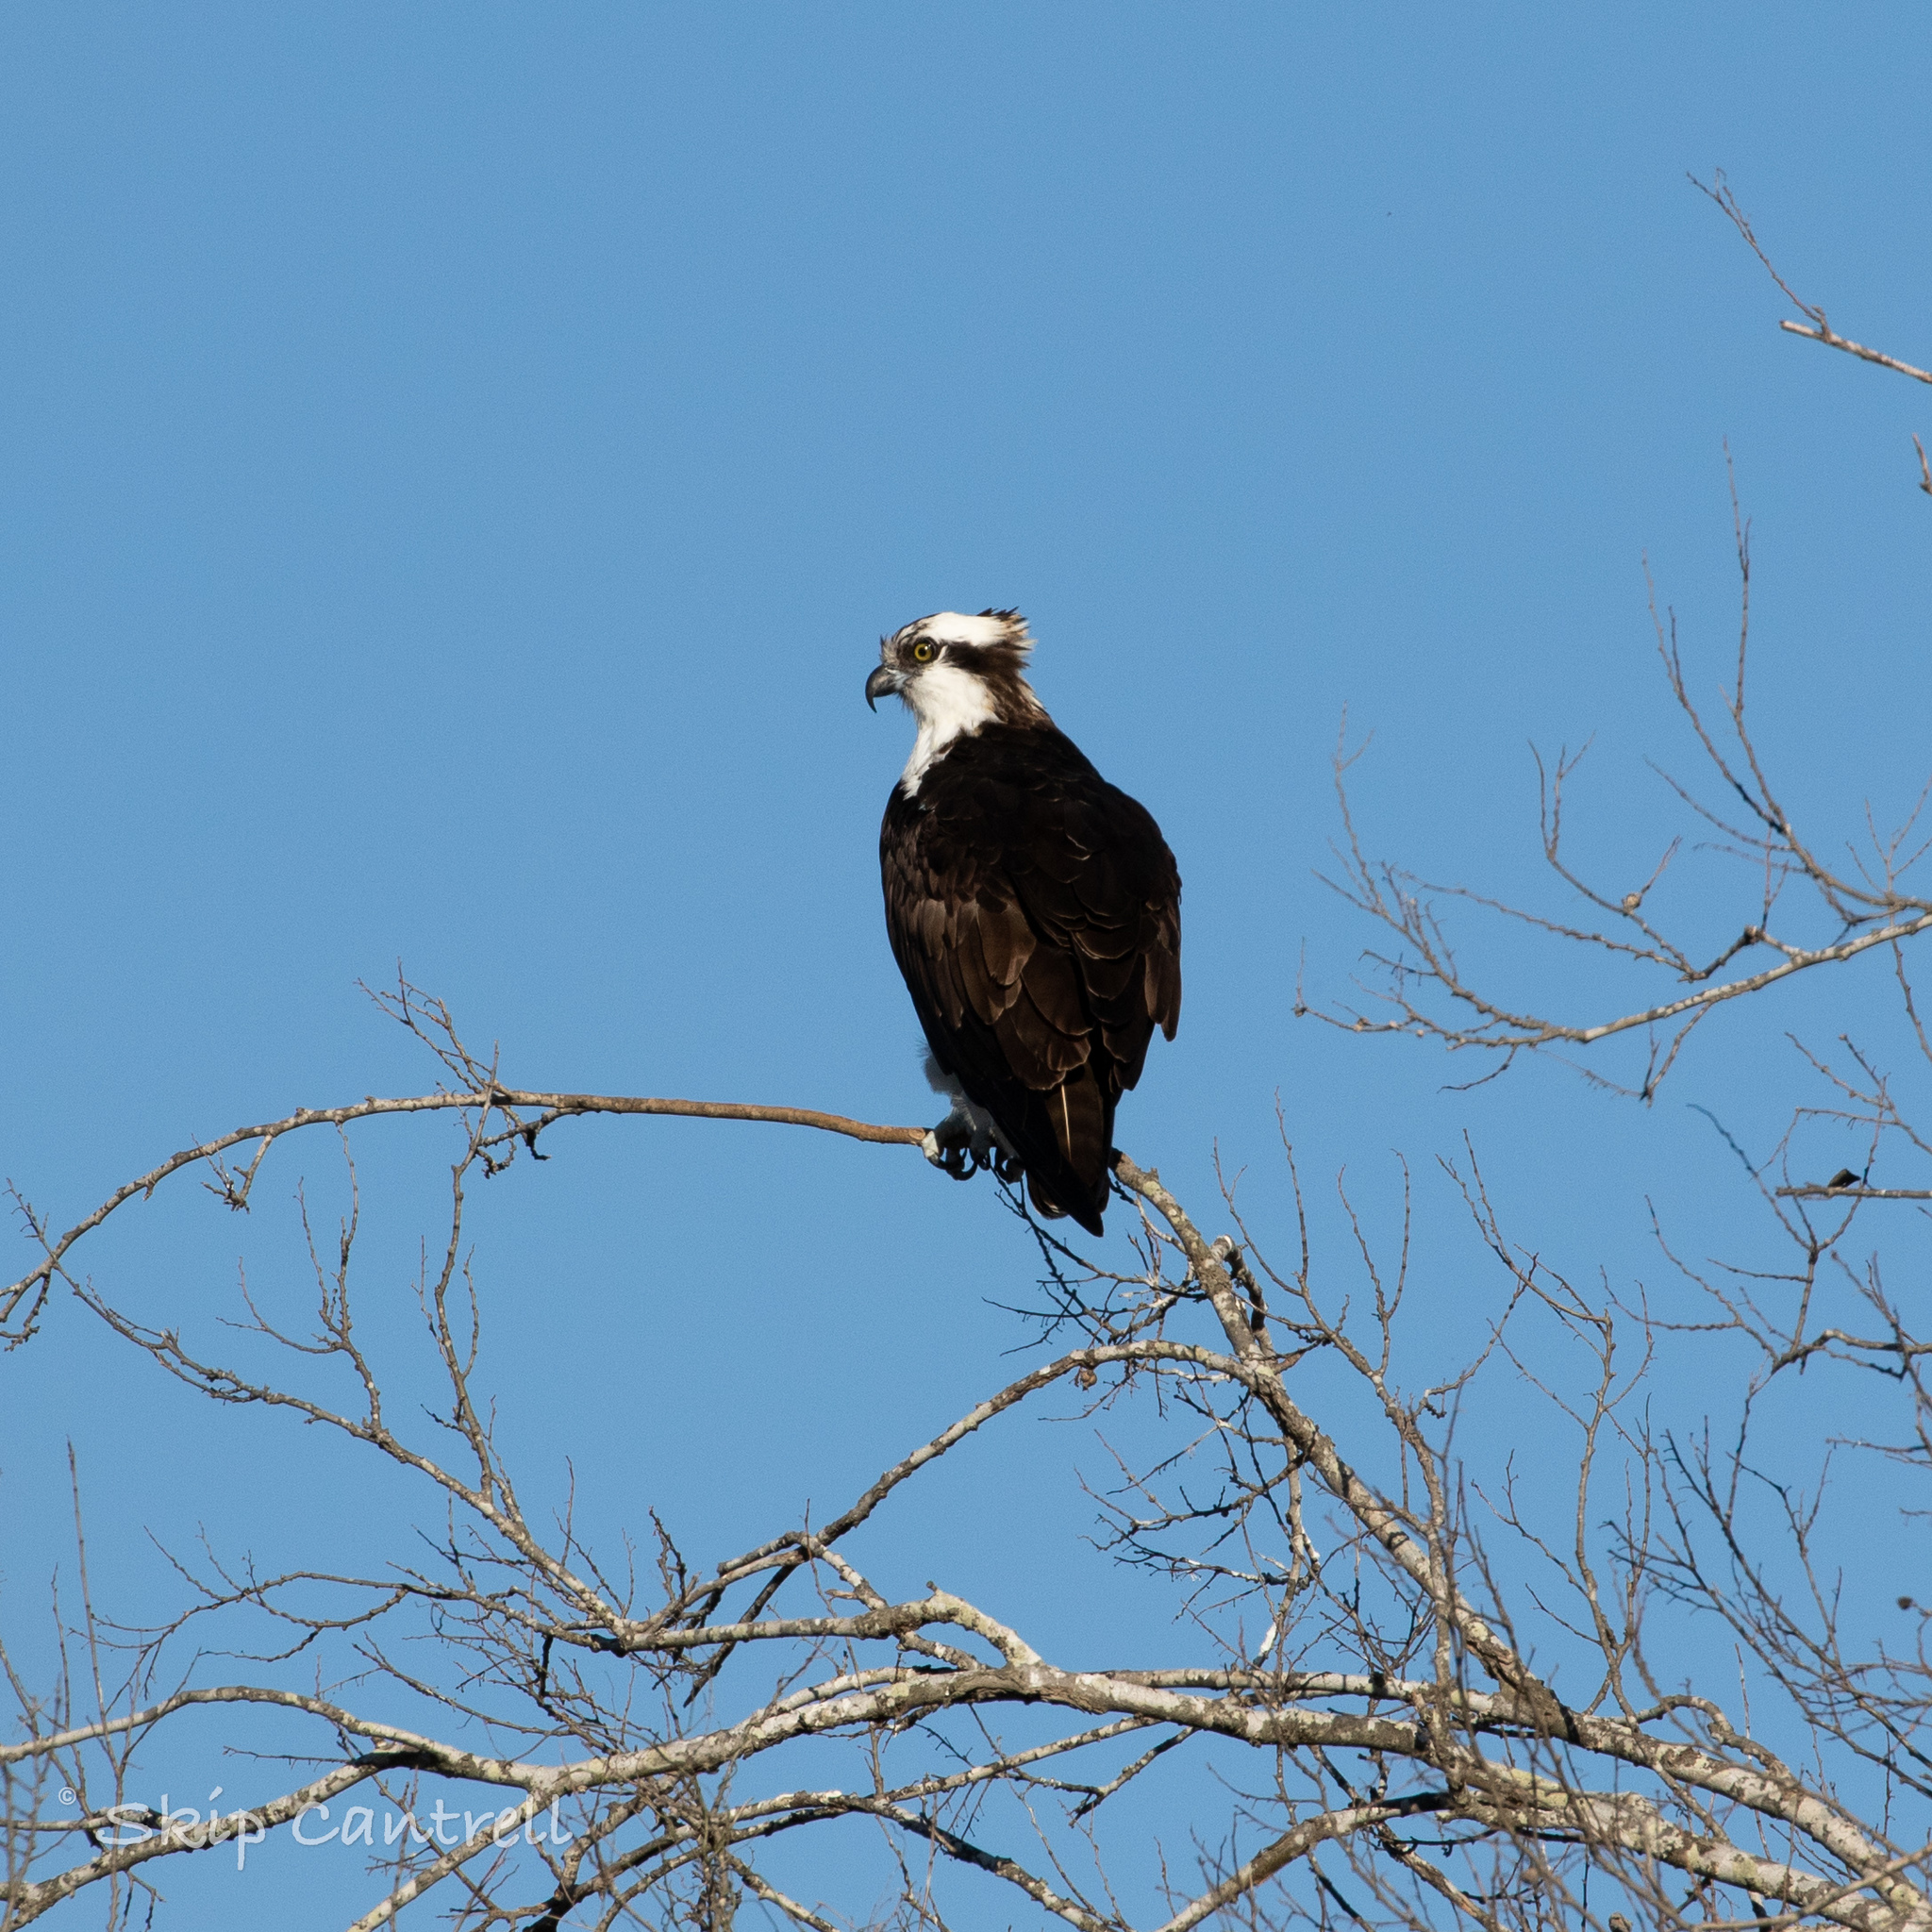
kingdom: Animalia
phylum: Chordata
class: Aves
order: Accipitriformes
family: Pandionidae
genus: Pandion
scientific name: Pandion haliaetus
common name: Osprey
